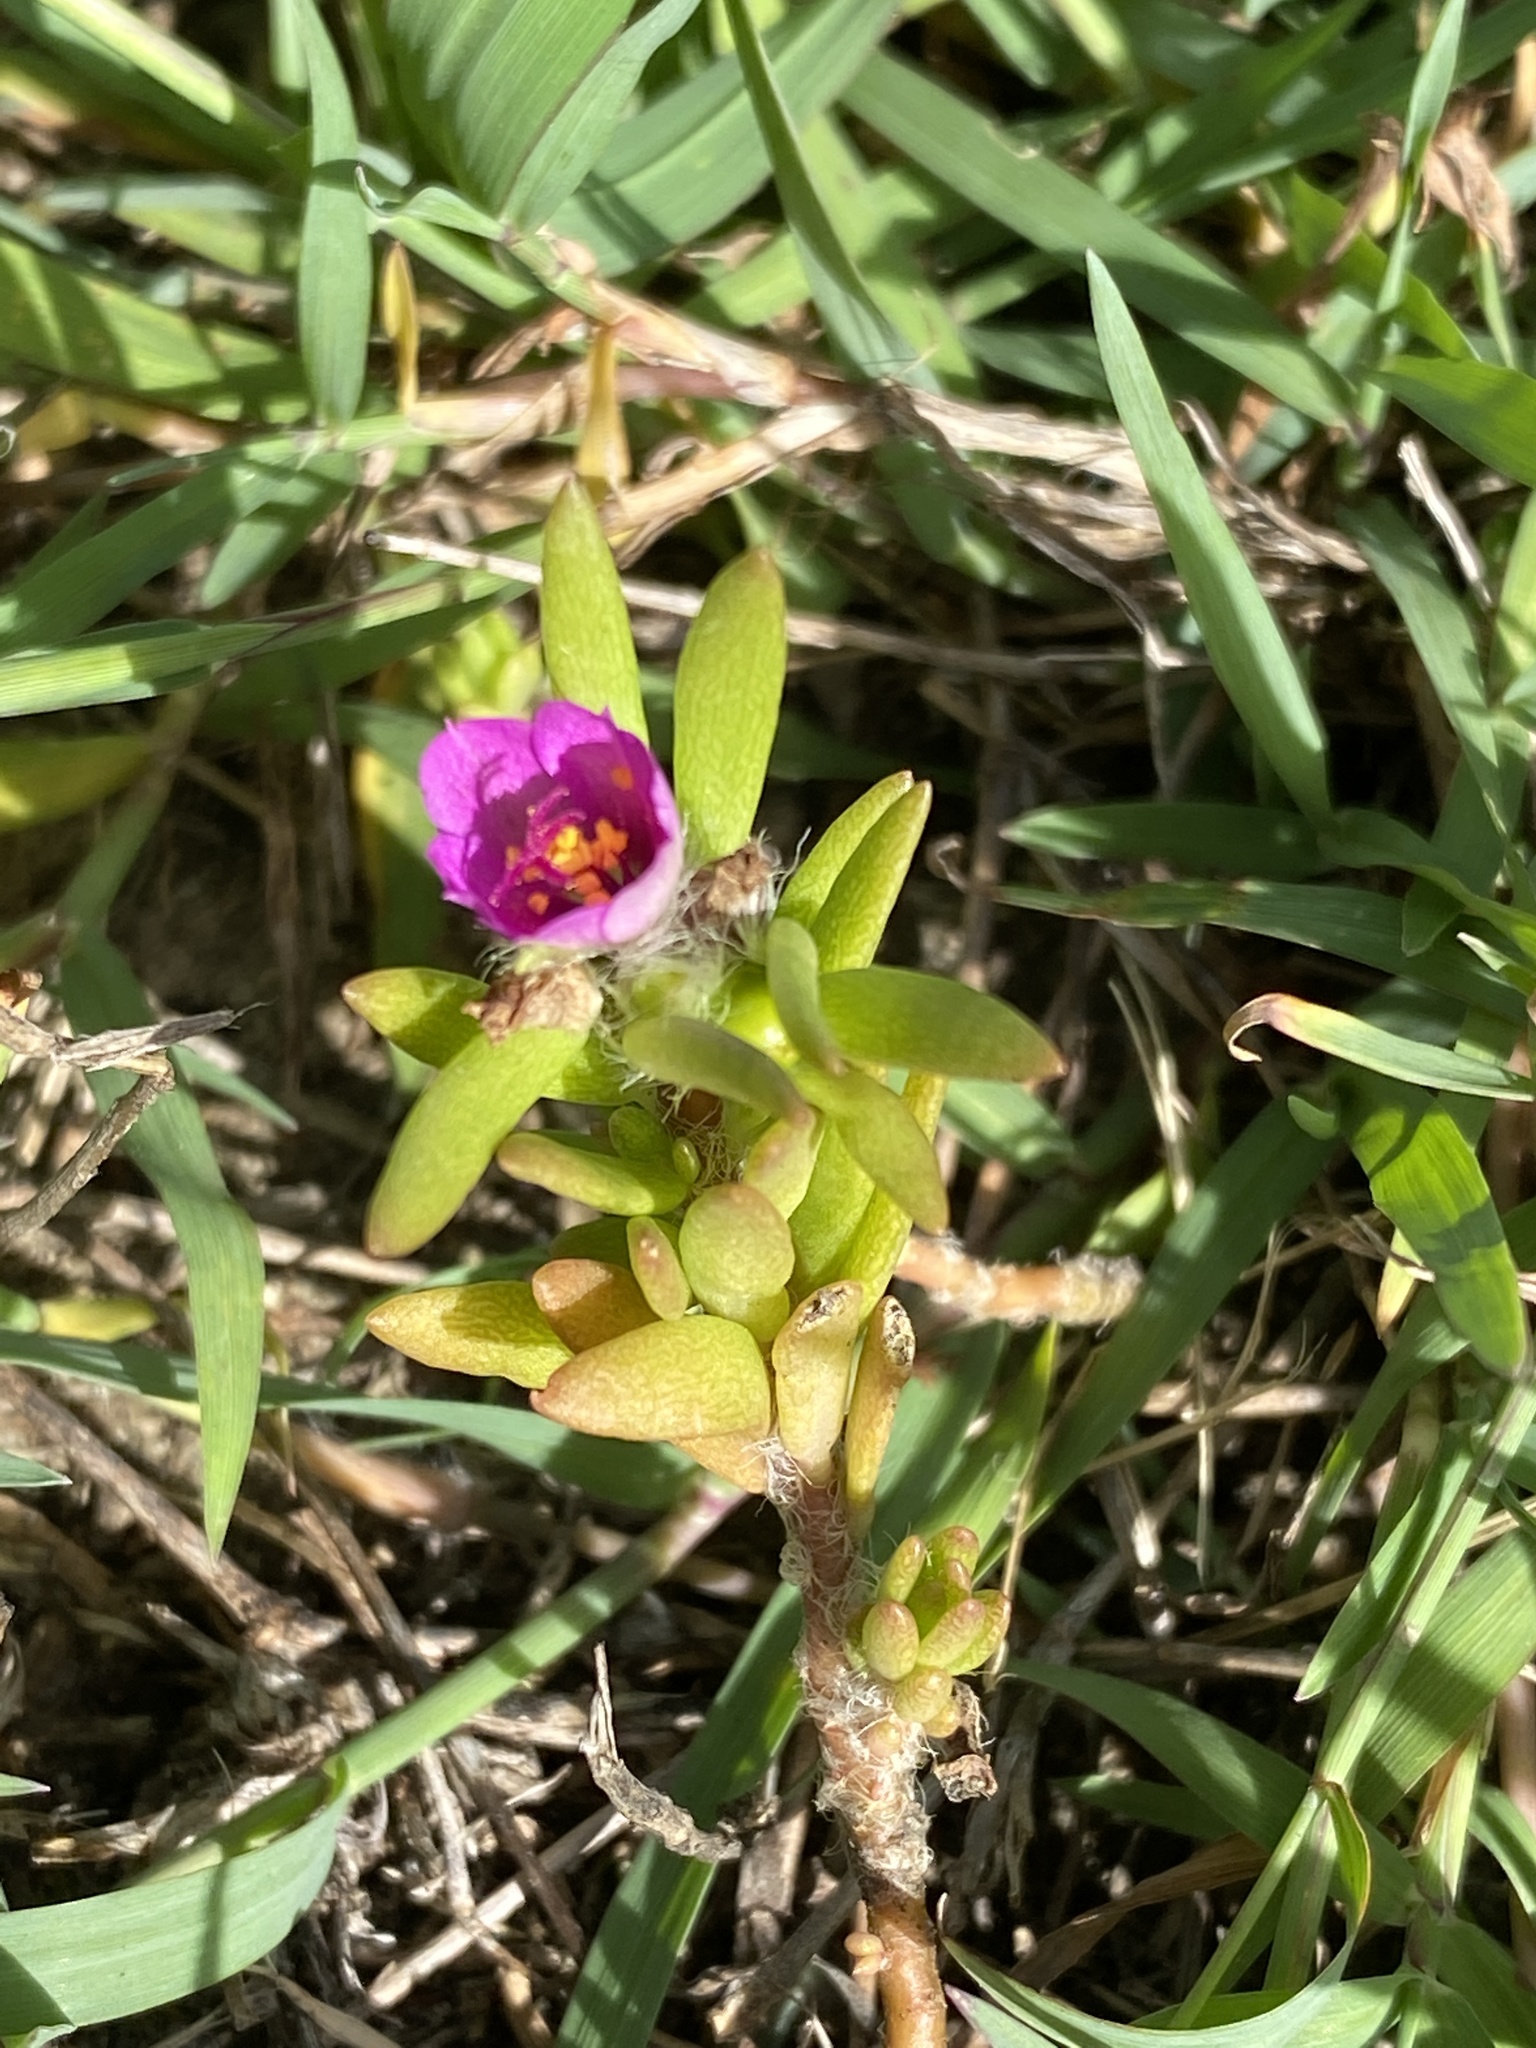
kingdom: Plantae
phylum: Tracheophyta
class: Magnoliopsida
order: Caryophyllales
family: Portulacaceae
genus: Portulaca
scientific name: Portulaca pilosa
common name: Kiss me quick
